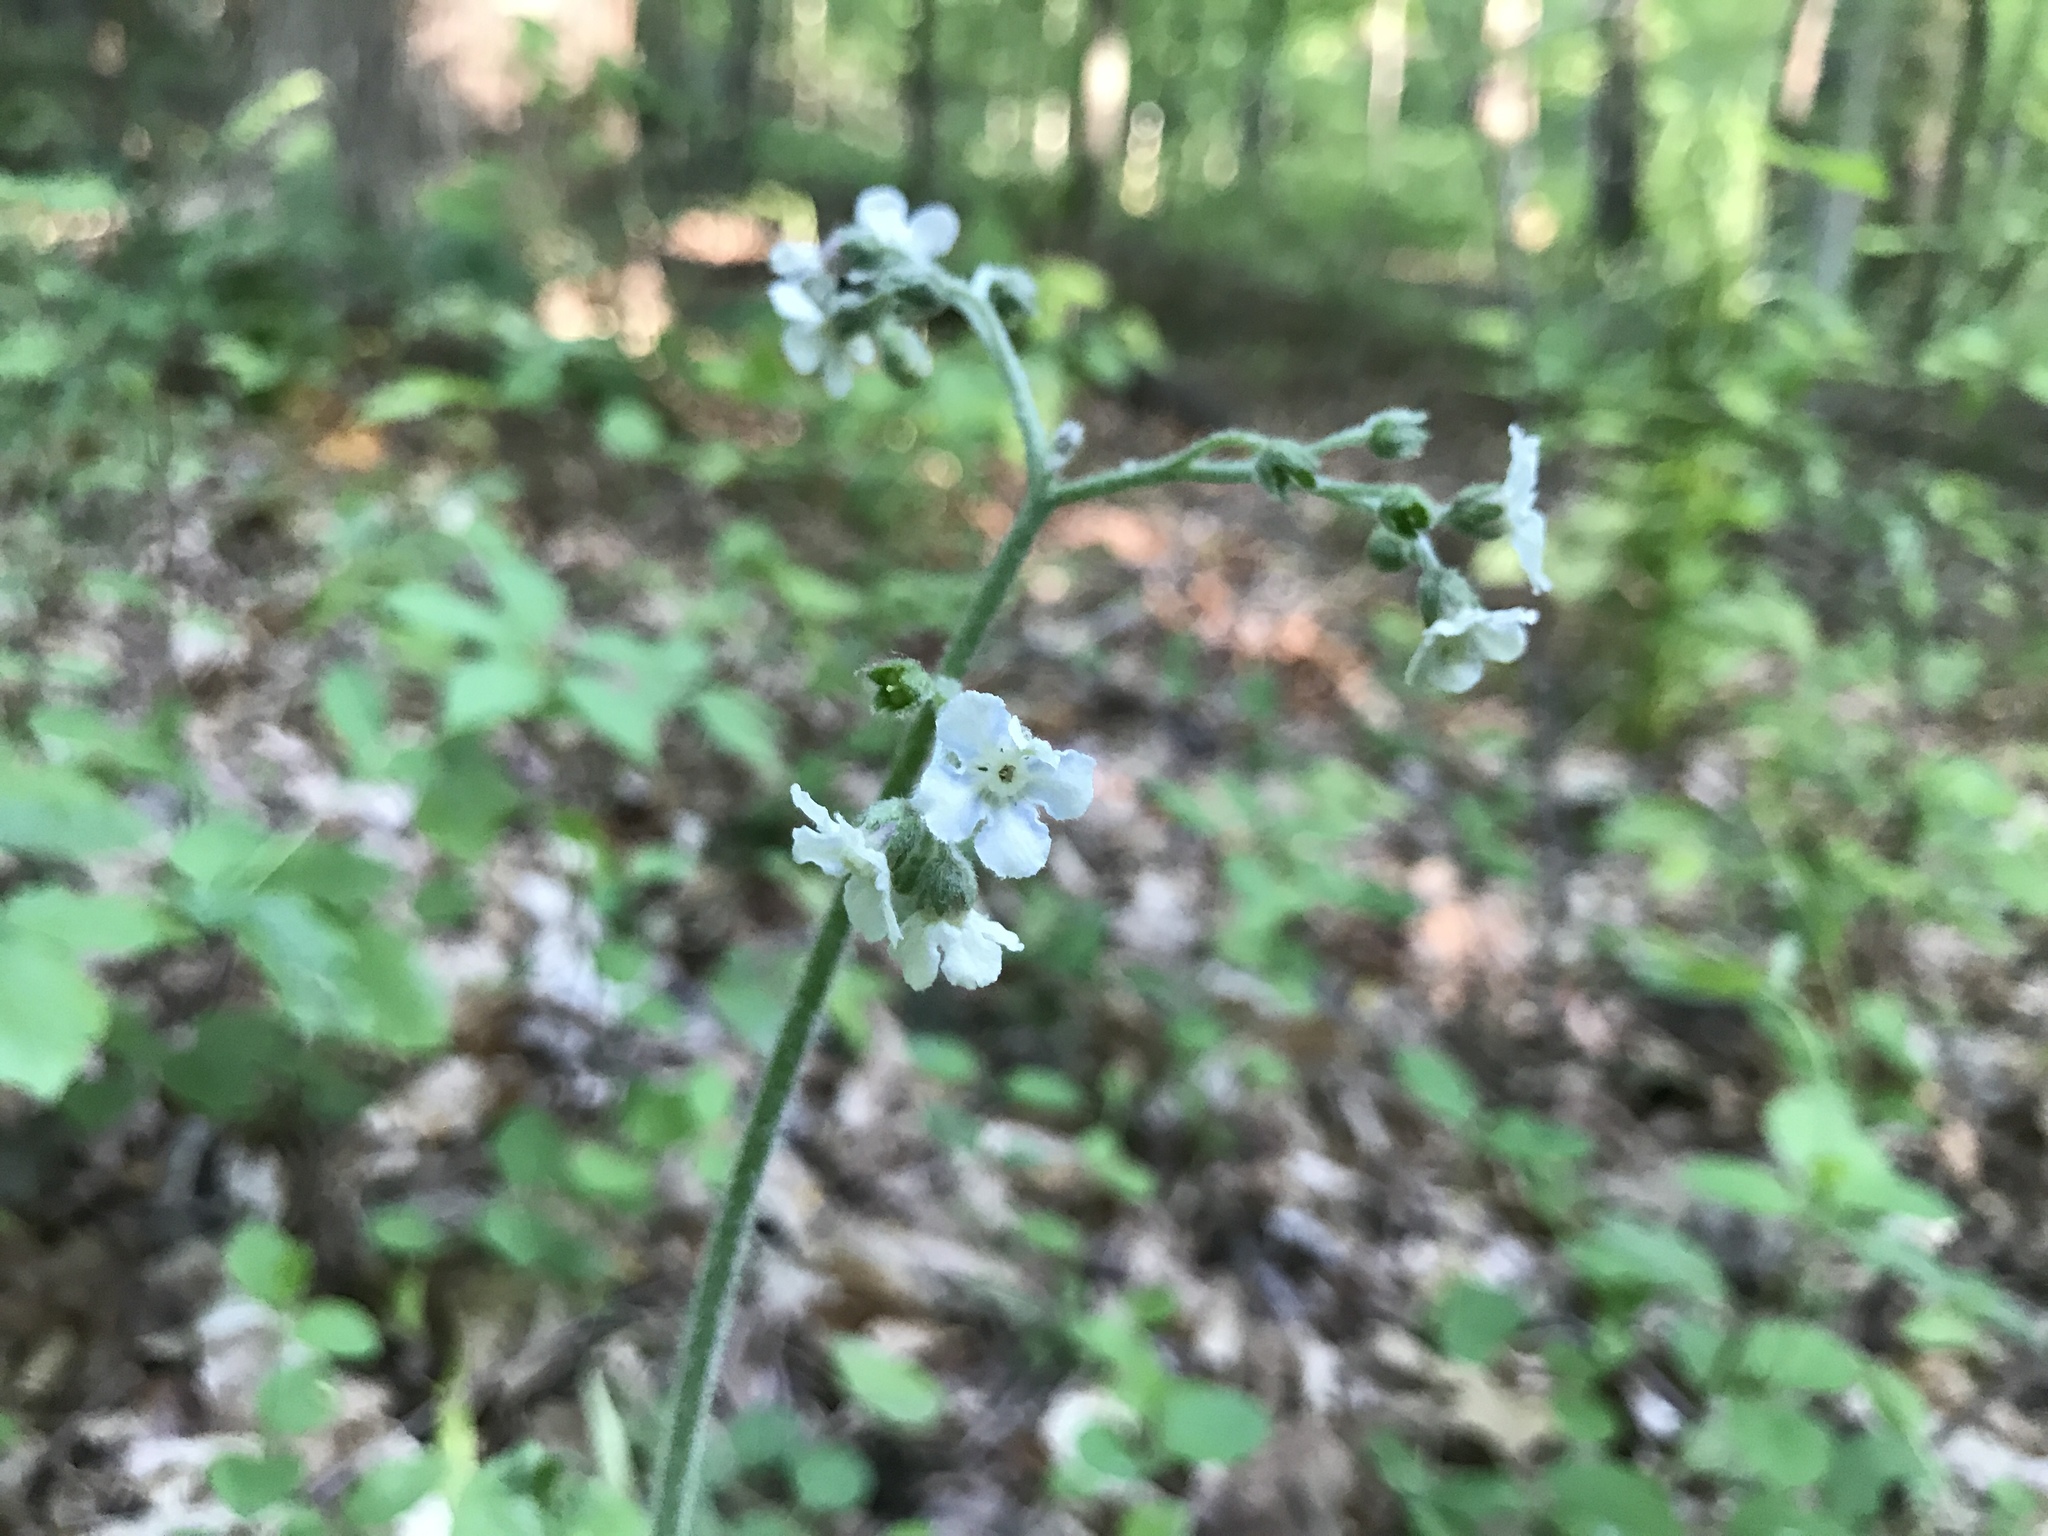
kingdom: Plantae
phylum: Tracheophyta
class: Magnoliopsida
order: Boraginales
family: Boraginaceae
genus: Andersonglossum
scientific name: Andersonglossum virginianum
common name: Wild comfrey
